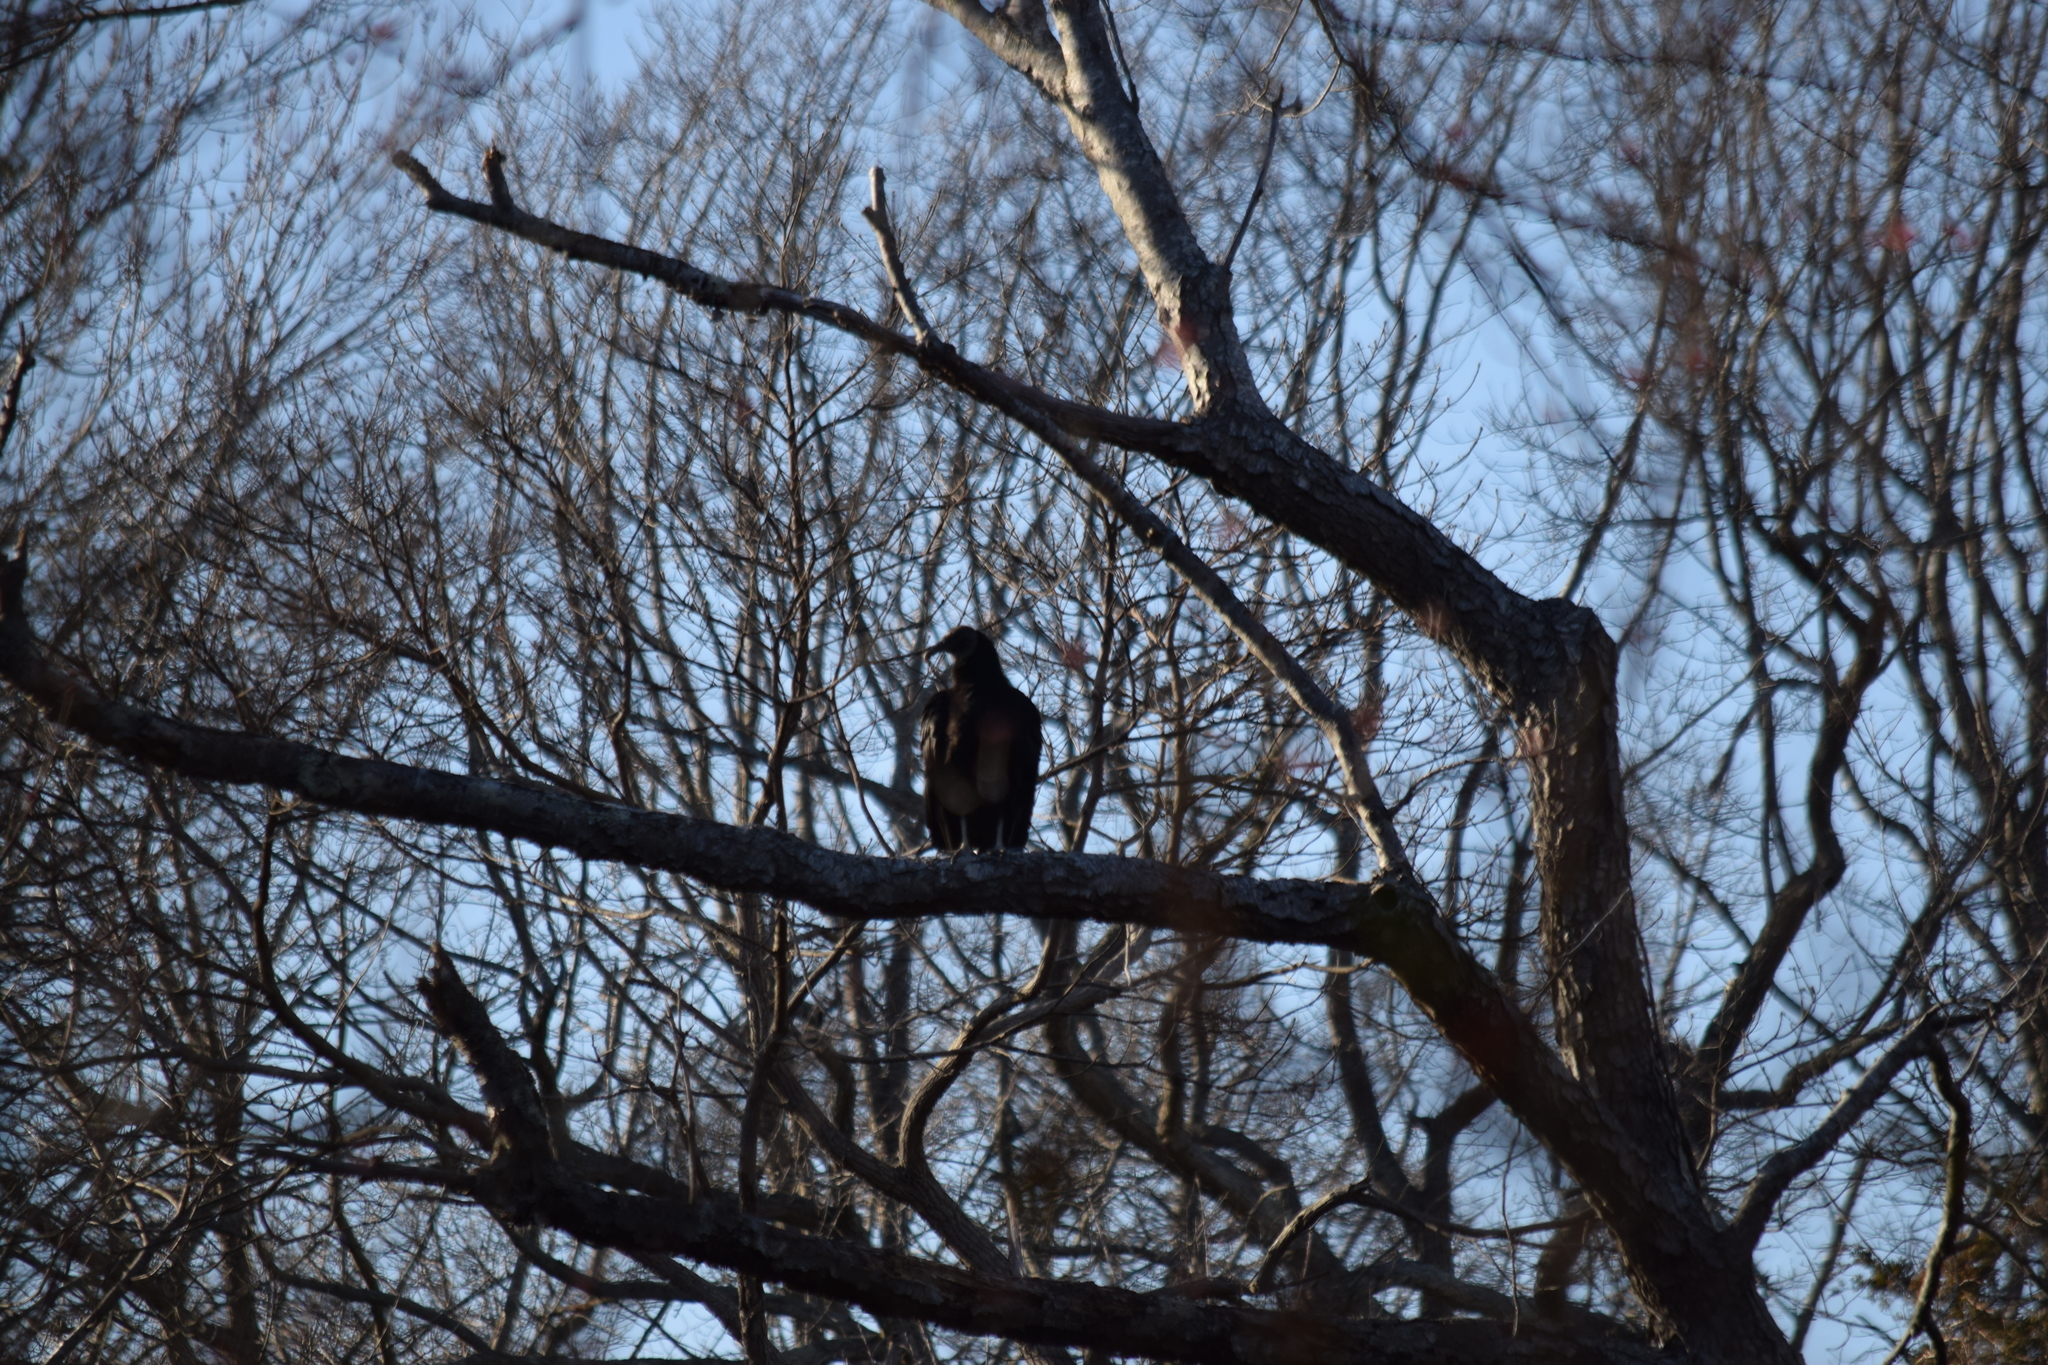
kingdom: Animalia
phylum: Chordata
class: Aves
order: Accipitriformes
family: Cathartidae
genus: Coragyps
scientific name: Coragyps atratus
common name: Black vulture
